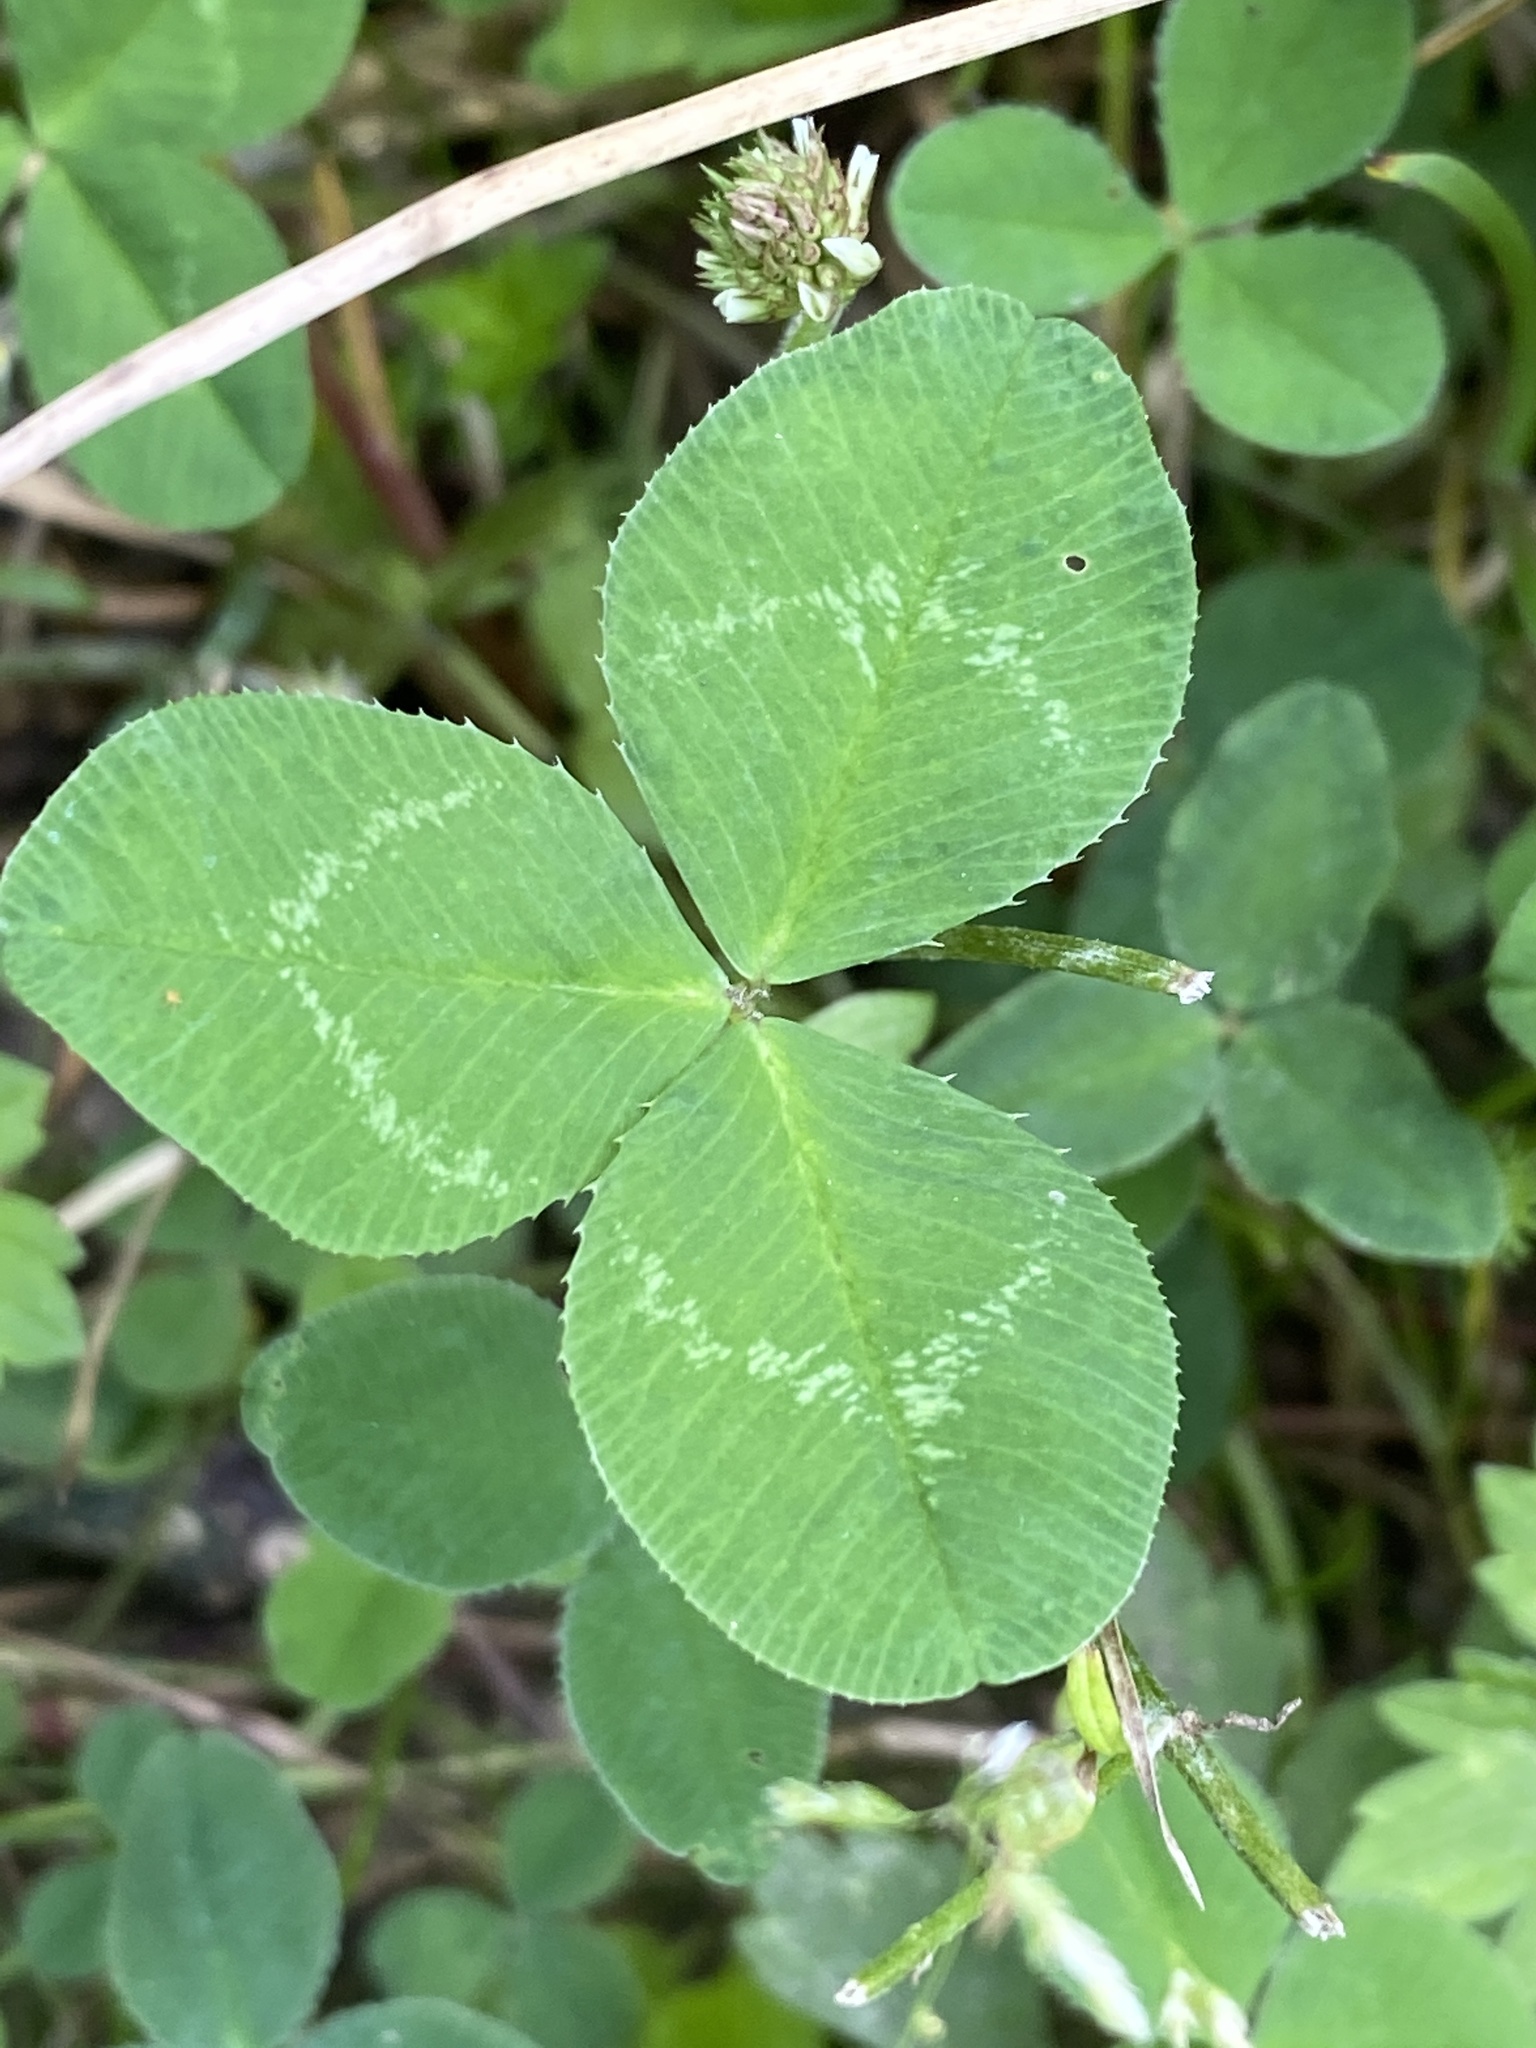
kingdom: Plantae
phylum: Tracheophyta
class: Magnoliopsida
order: Fabales
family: Fabaceae
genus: Trifolium
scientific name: Trifolium repens
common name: White clover
